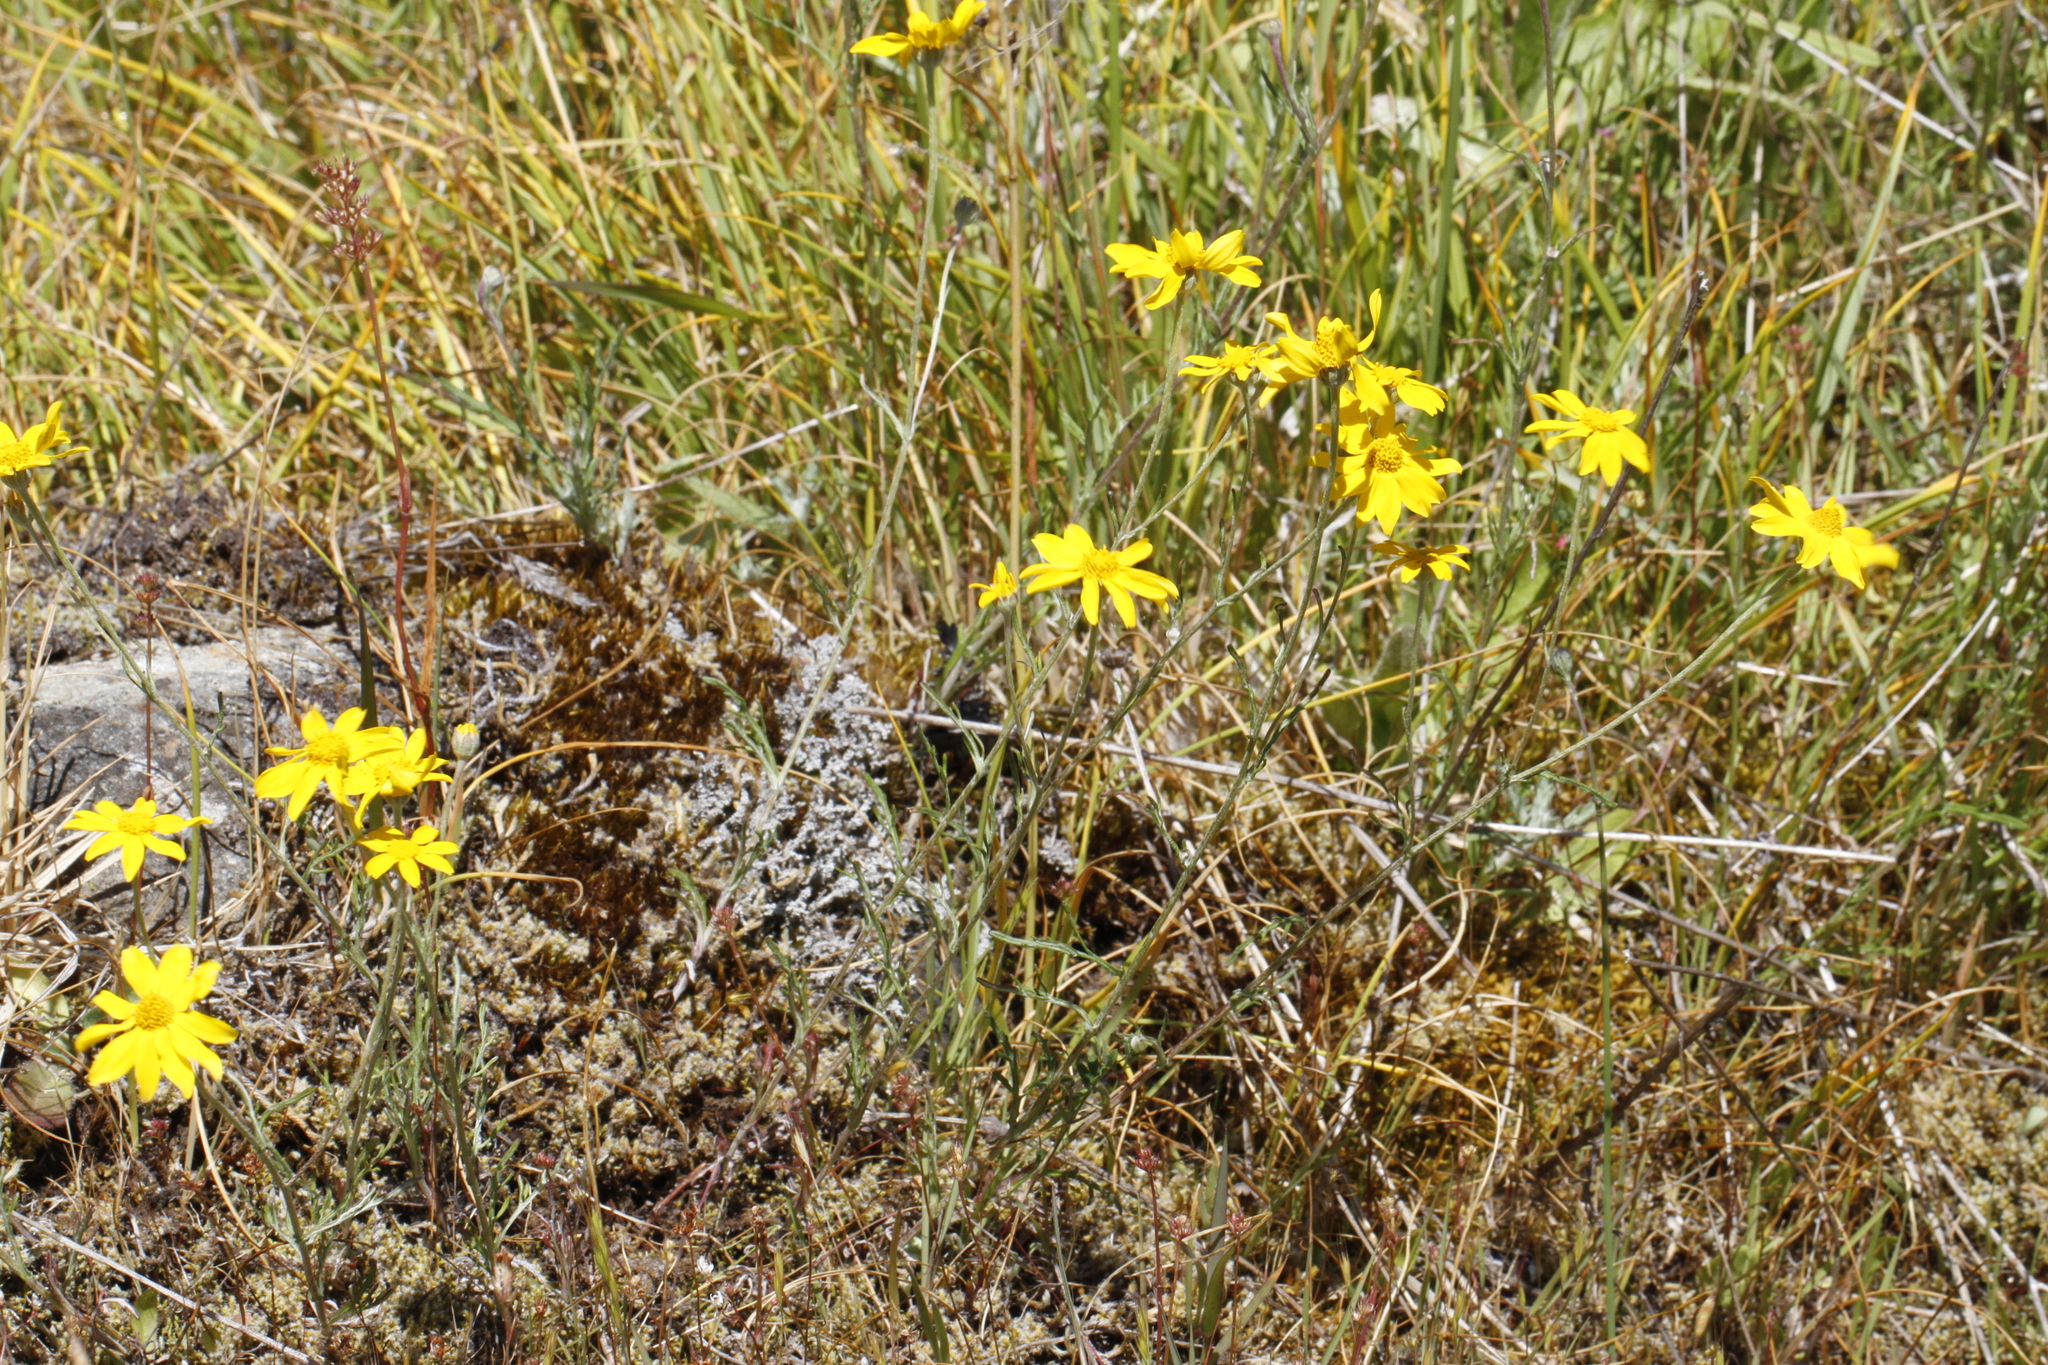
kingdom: Plantae
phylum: Tracheophyta
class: Magnoliopsida
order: Asterales
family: Asteraceae
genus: Eriophyllum
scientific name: Eriophyllum lanatum
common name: Common woolly-sunflower
